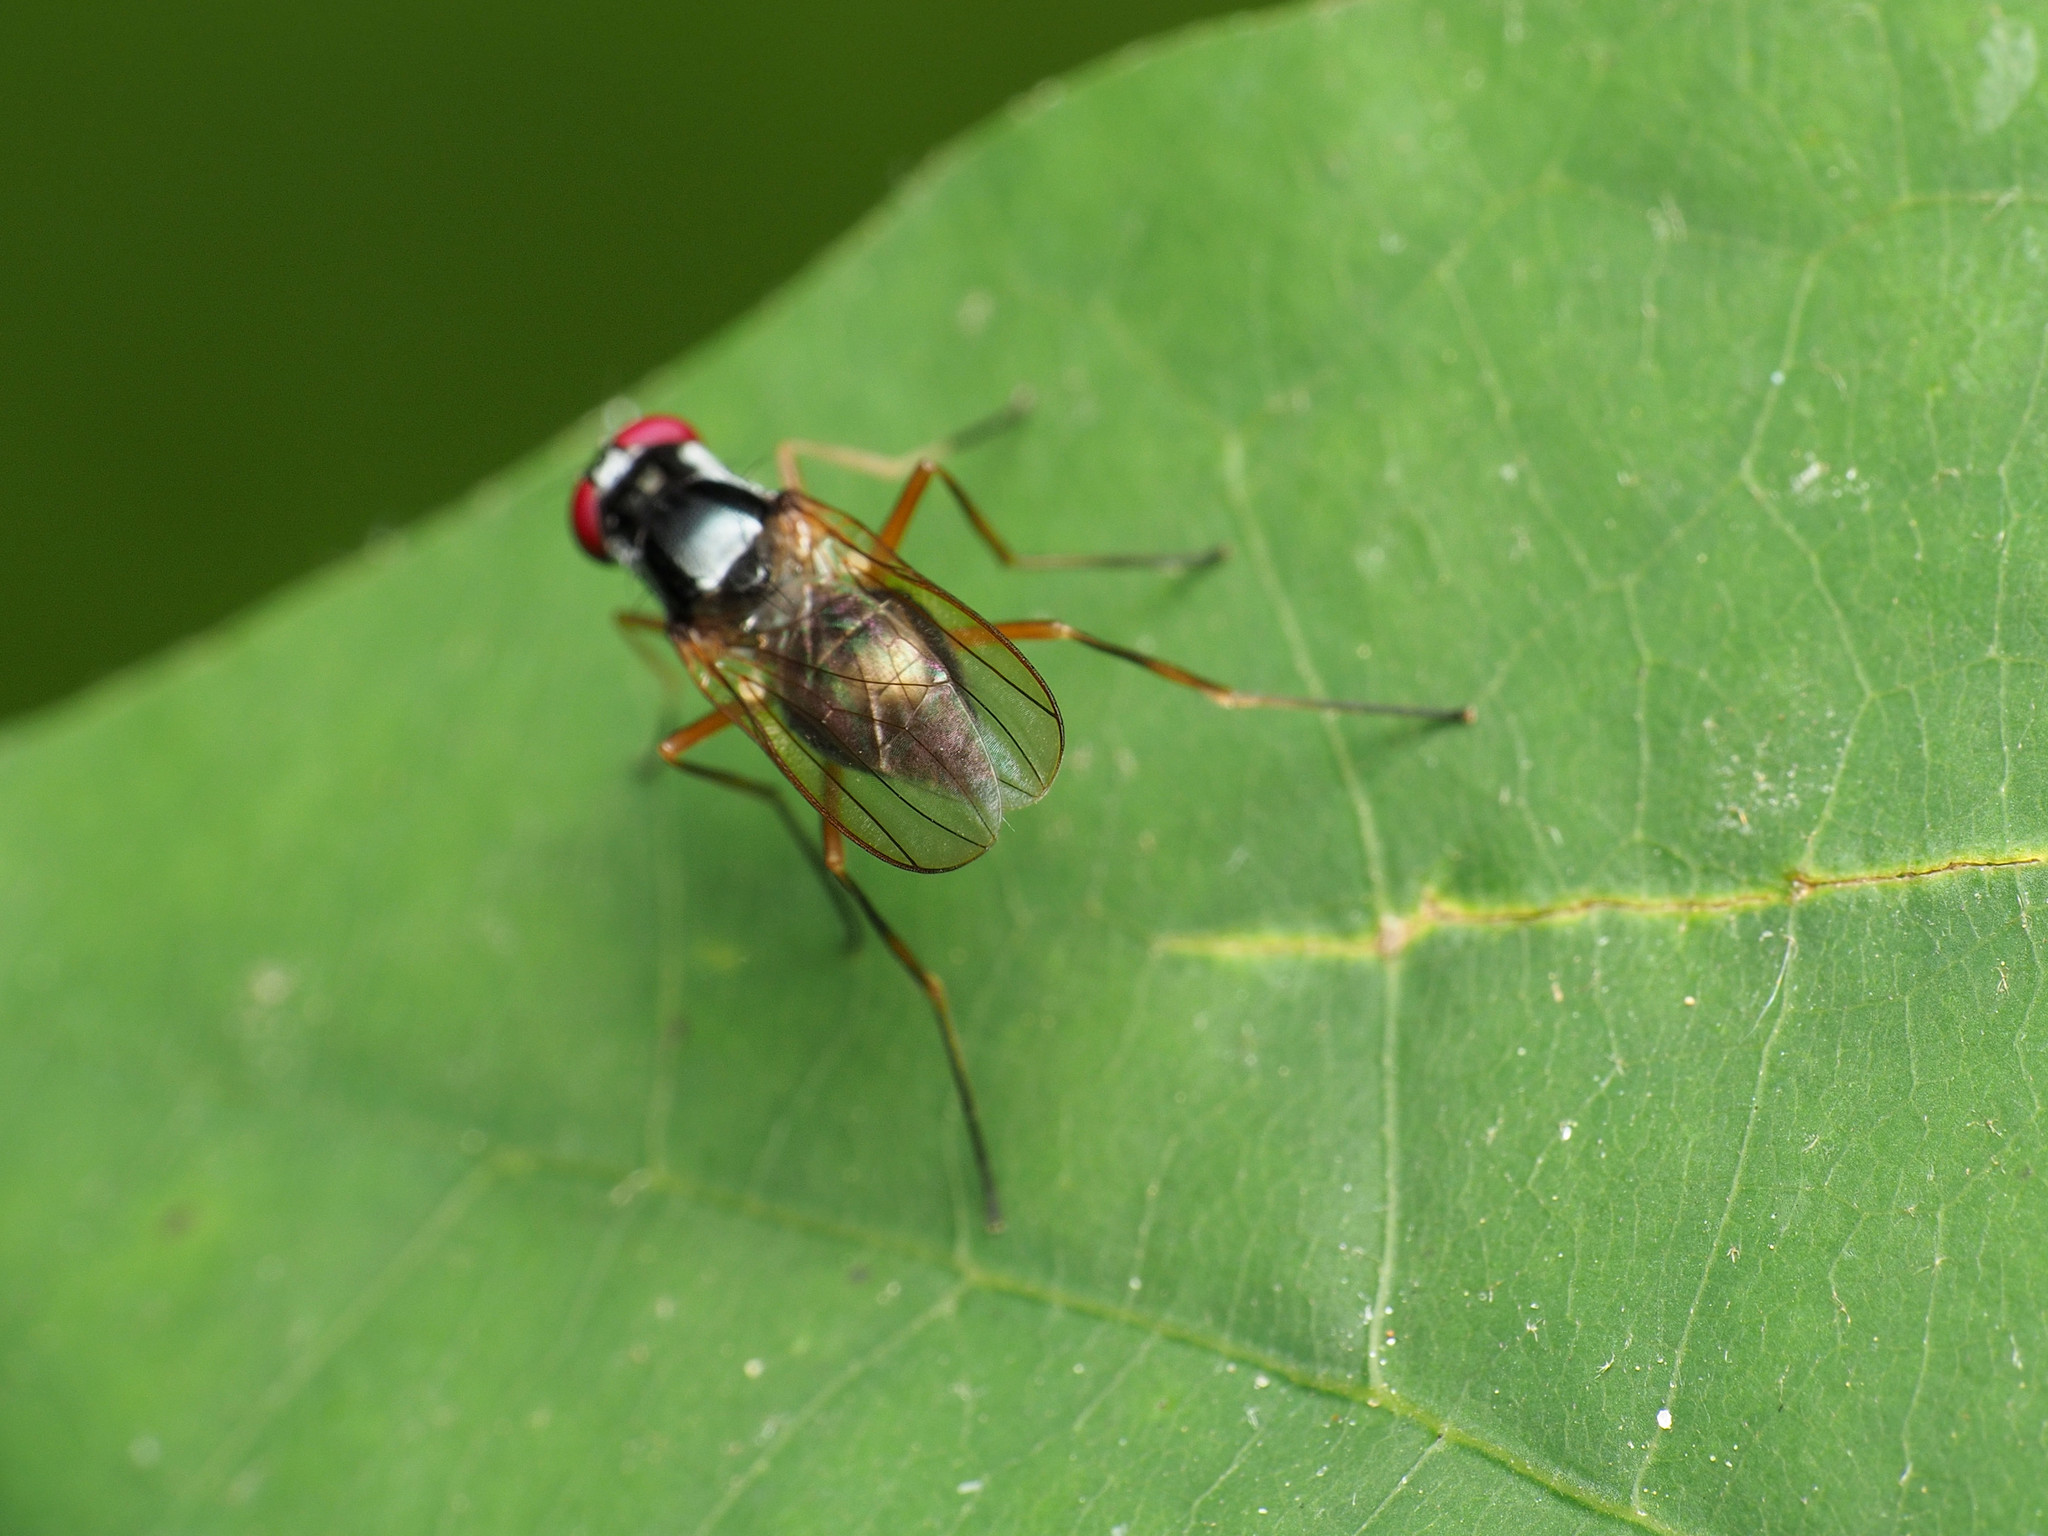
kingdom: Animalia
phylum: Arthropoda
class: Insecta
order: Diptera
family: Tanypezidae
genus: Tanypeza
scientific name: Tanypeza picticornis
